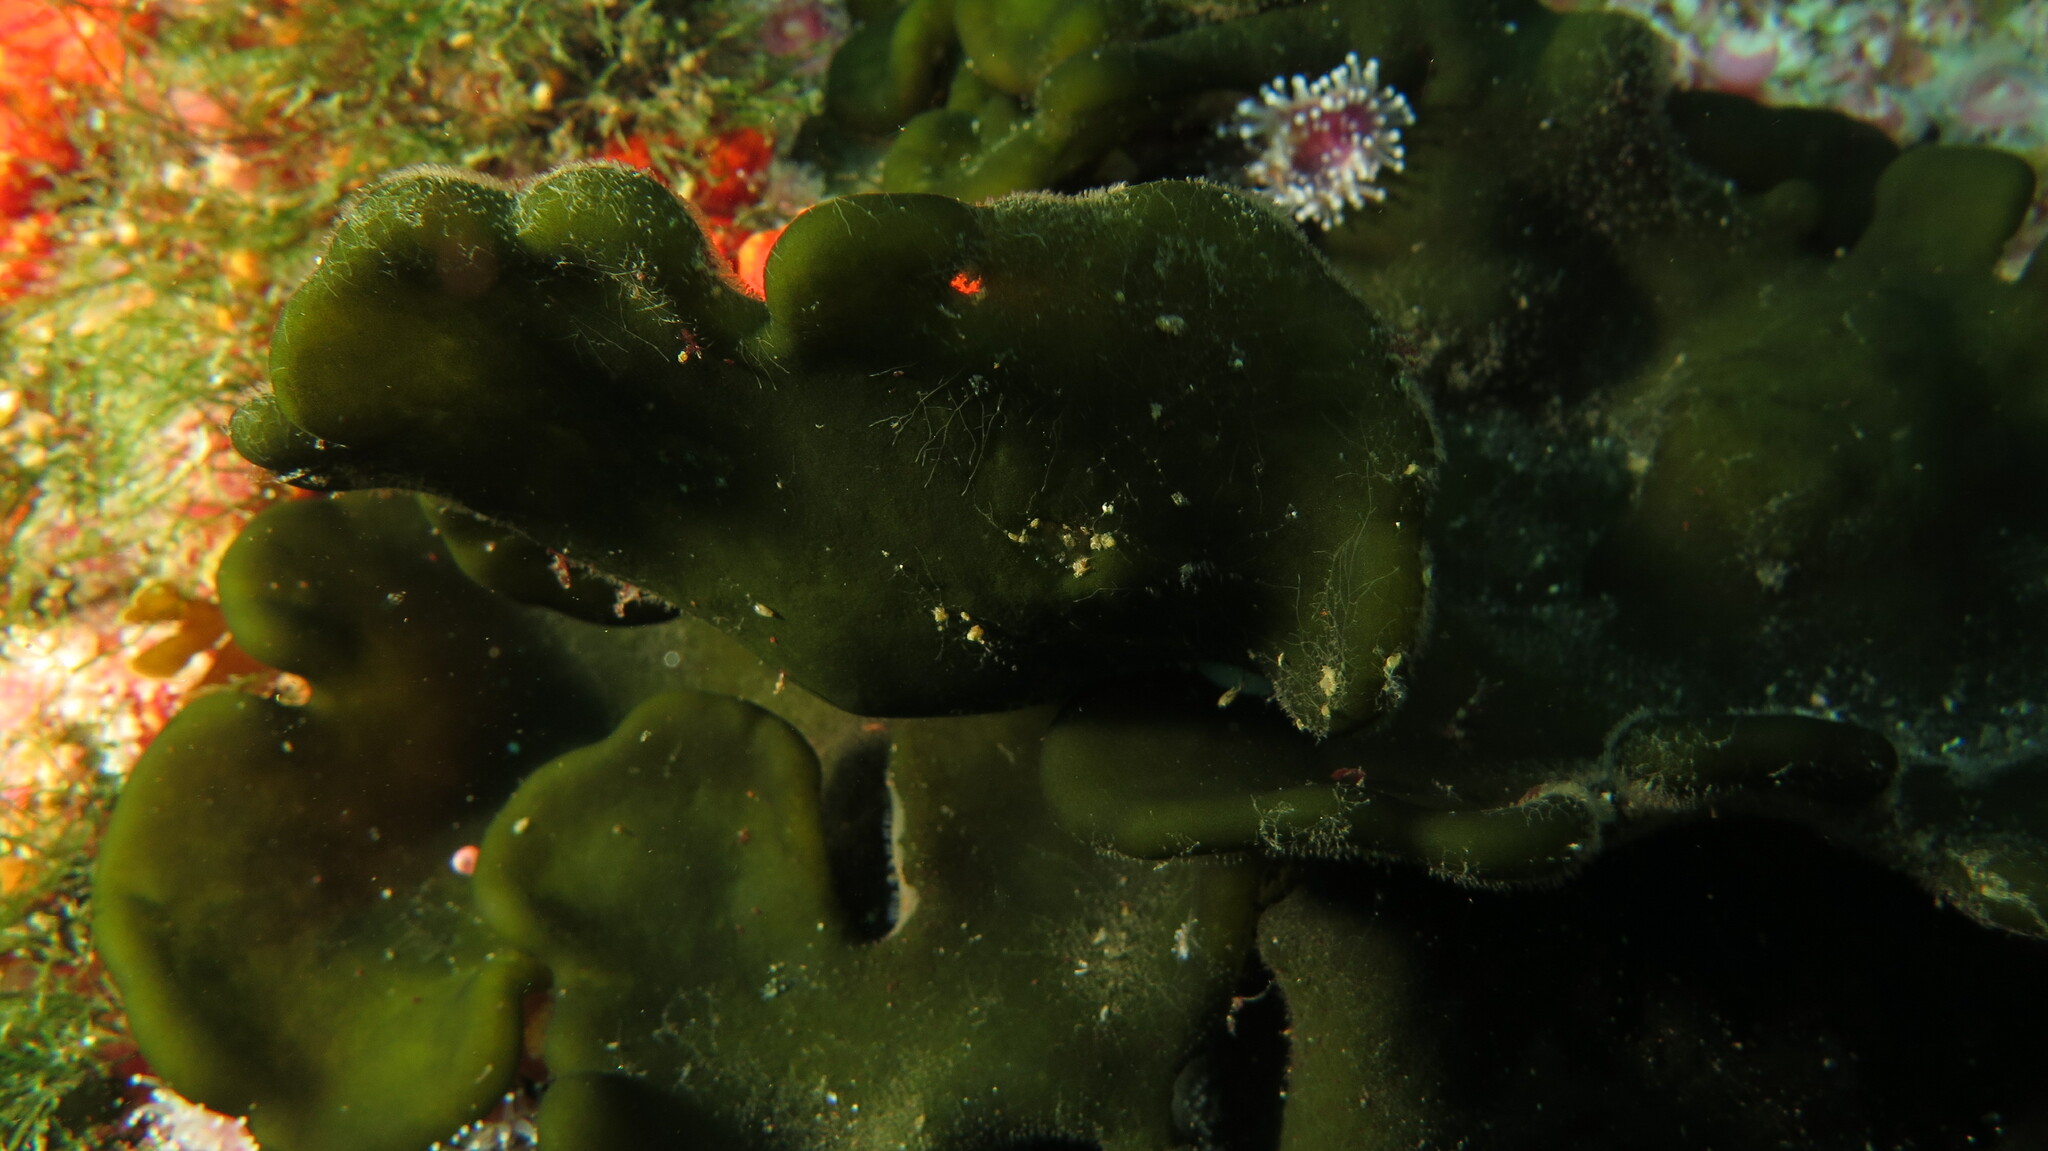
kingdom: Plantae
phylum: Chlorophyta
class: Ulvophyceae
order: Bryopsidales
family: Codiaceae
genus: Codium
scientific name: Codium
